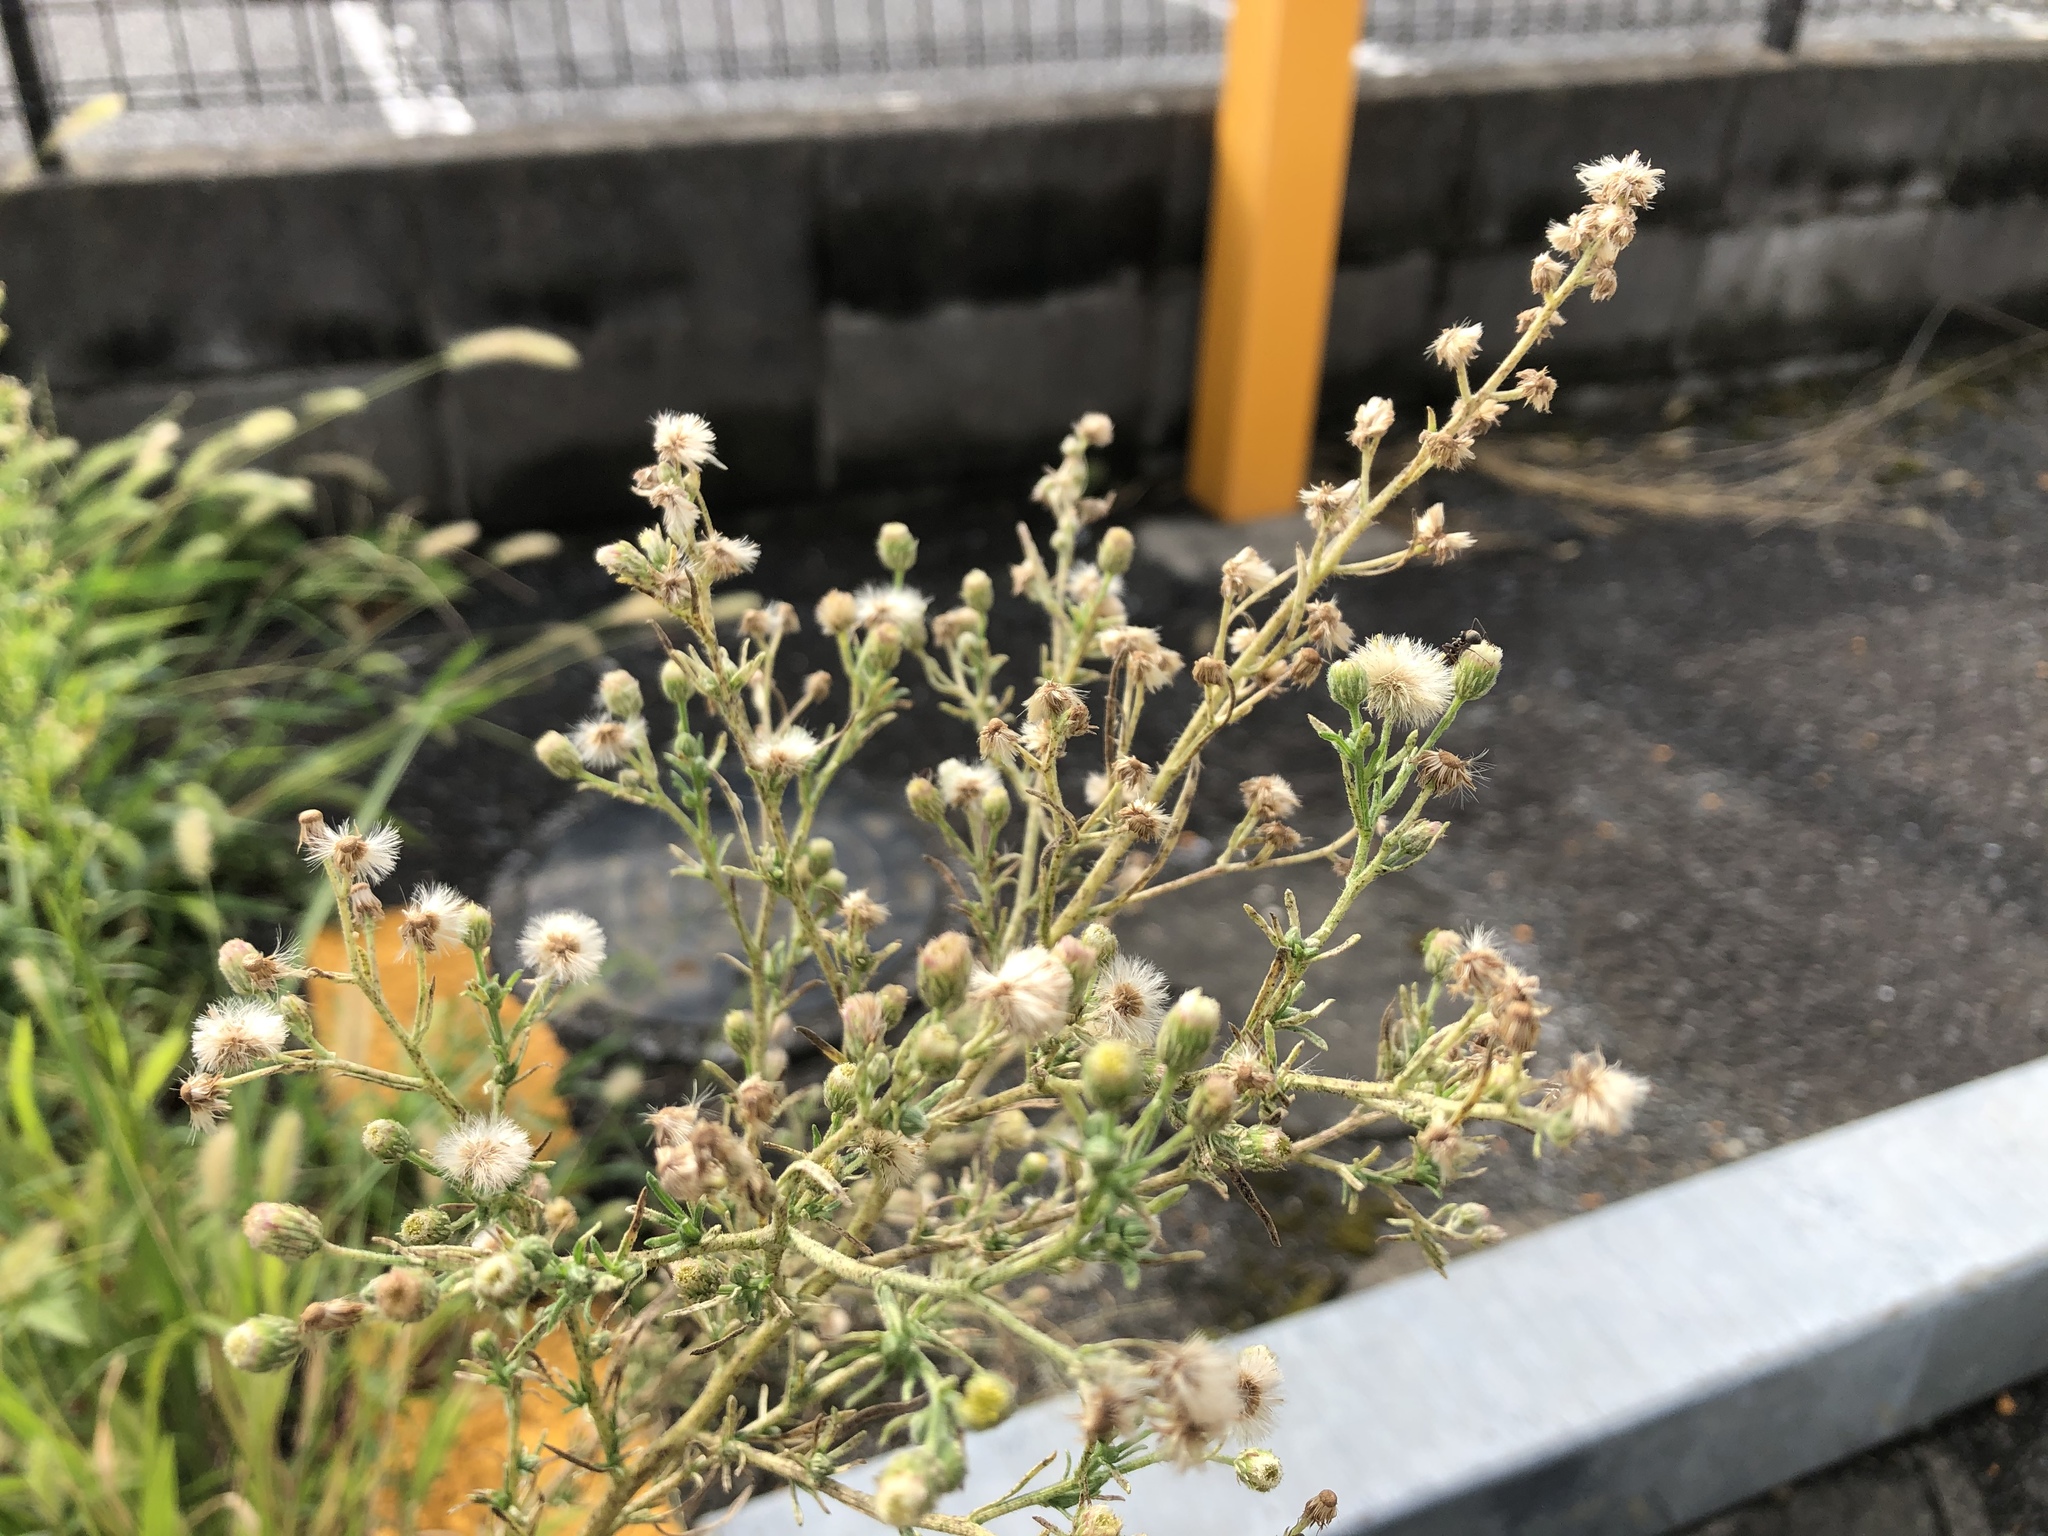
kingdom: Plantae
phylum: Tracheophyta
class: Magnoliopsida
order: Asterales
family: Asteraceae
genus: Erigeron
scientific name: Erigeron canadensis
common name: Canadian fleabane
